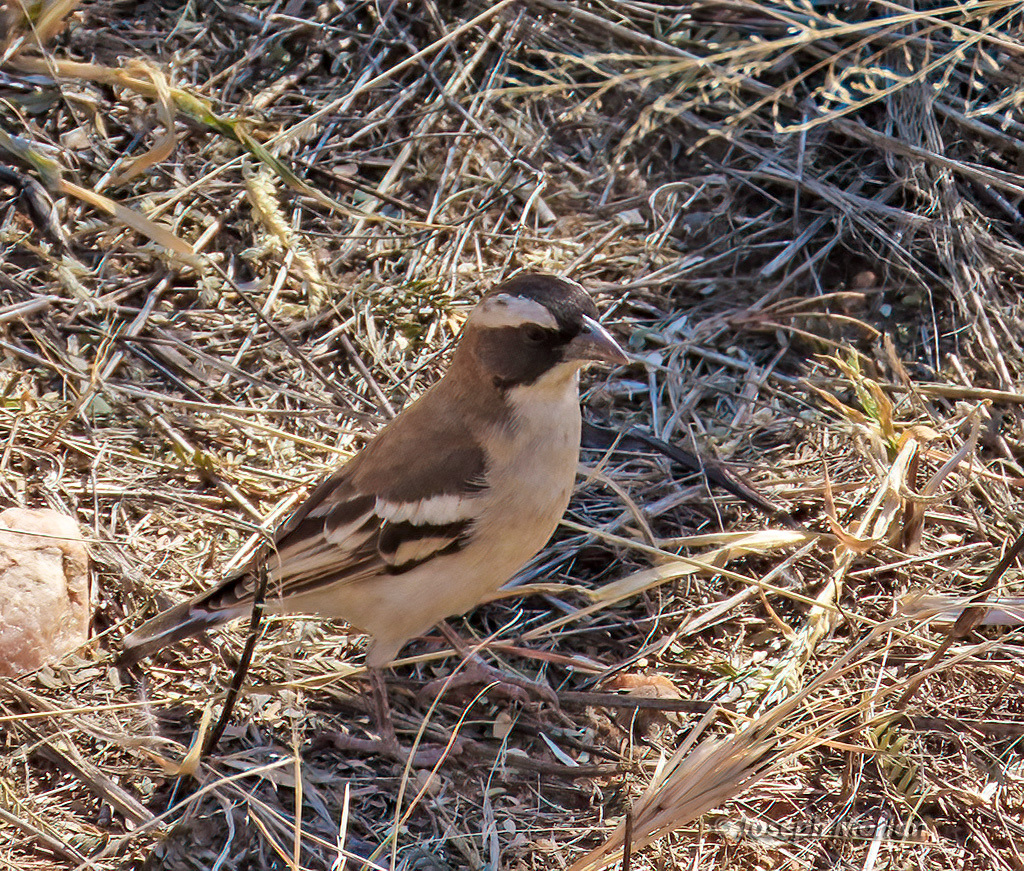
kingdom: Animalia
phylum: Chordata
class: Aves
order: Passeriformes
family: Passeridae
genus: Plocepasser
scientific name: Plocepasser mahali
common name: White-browed sparrow-weaver
